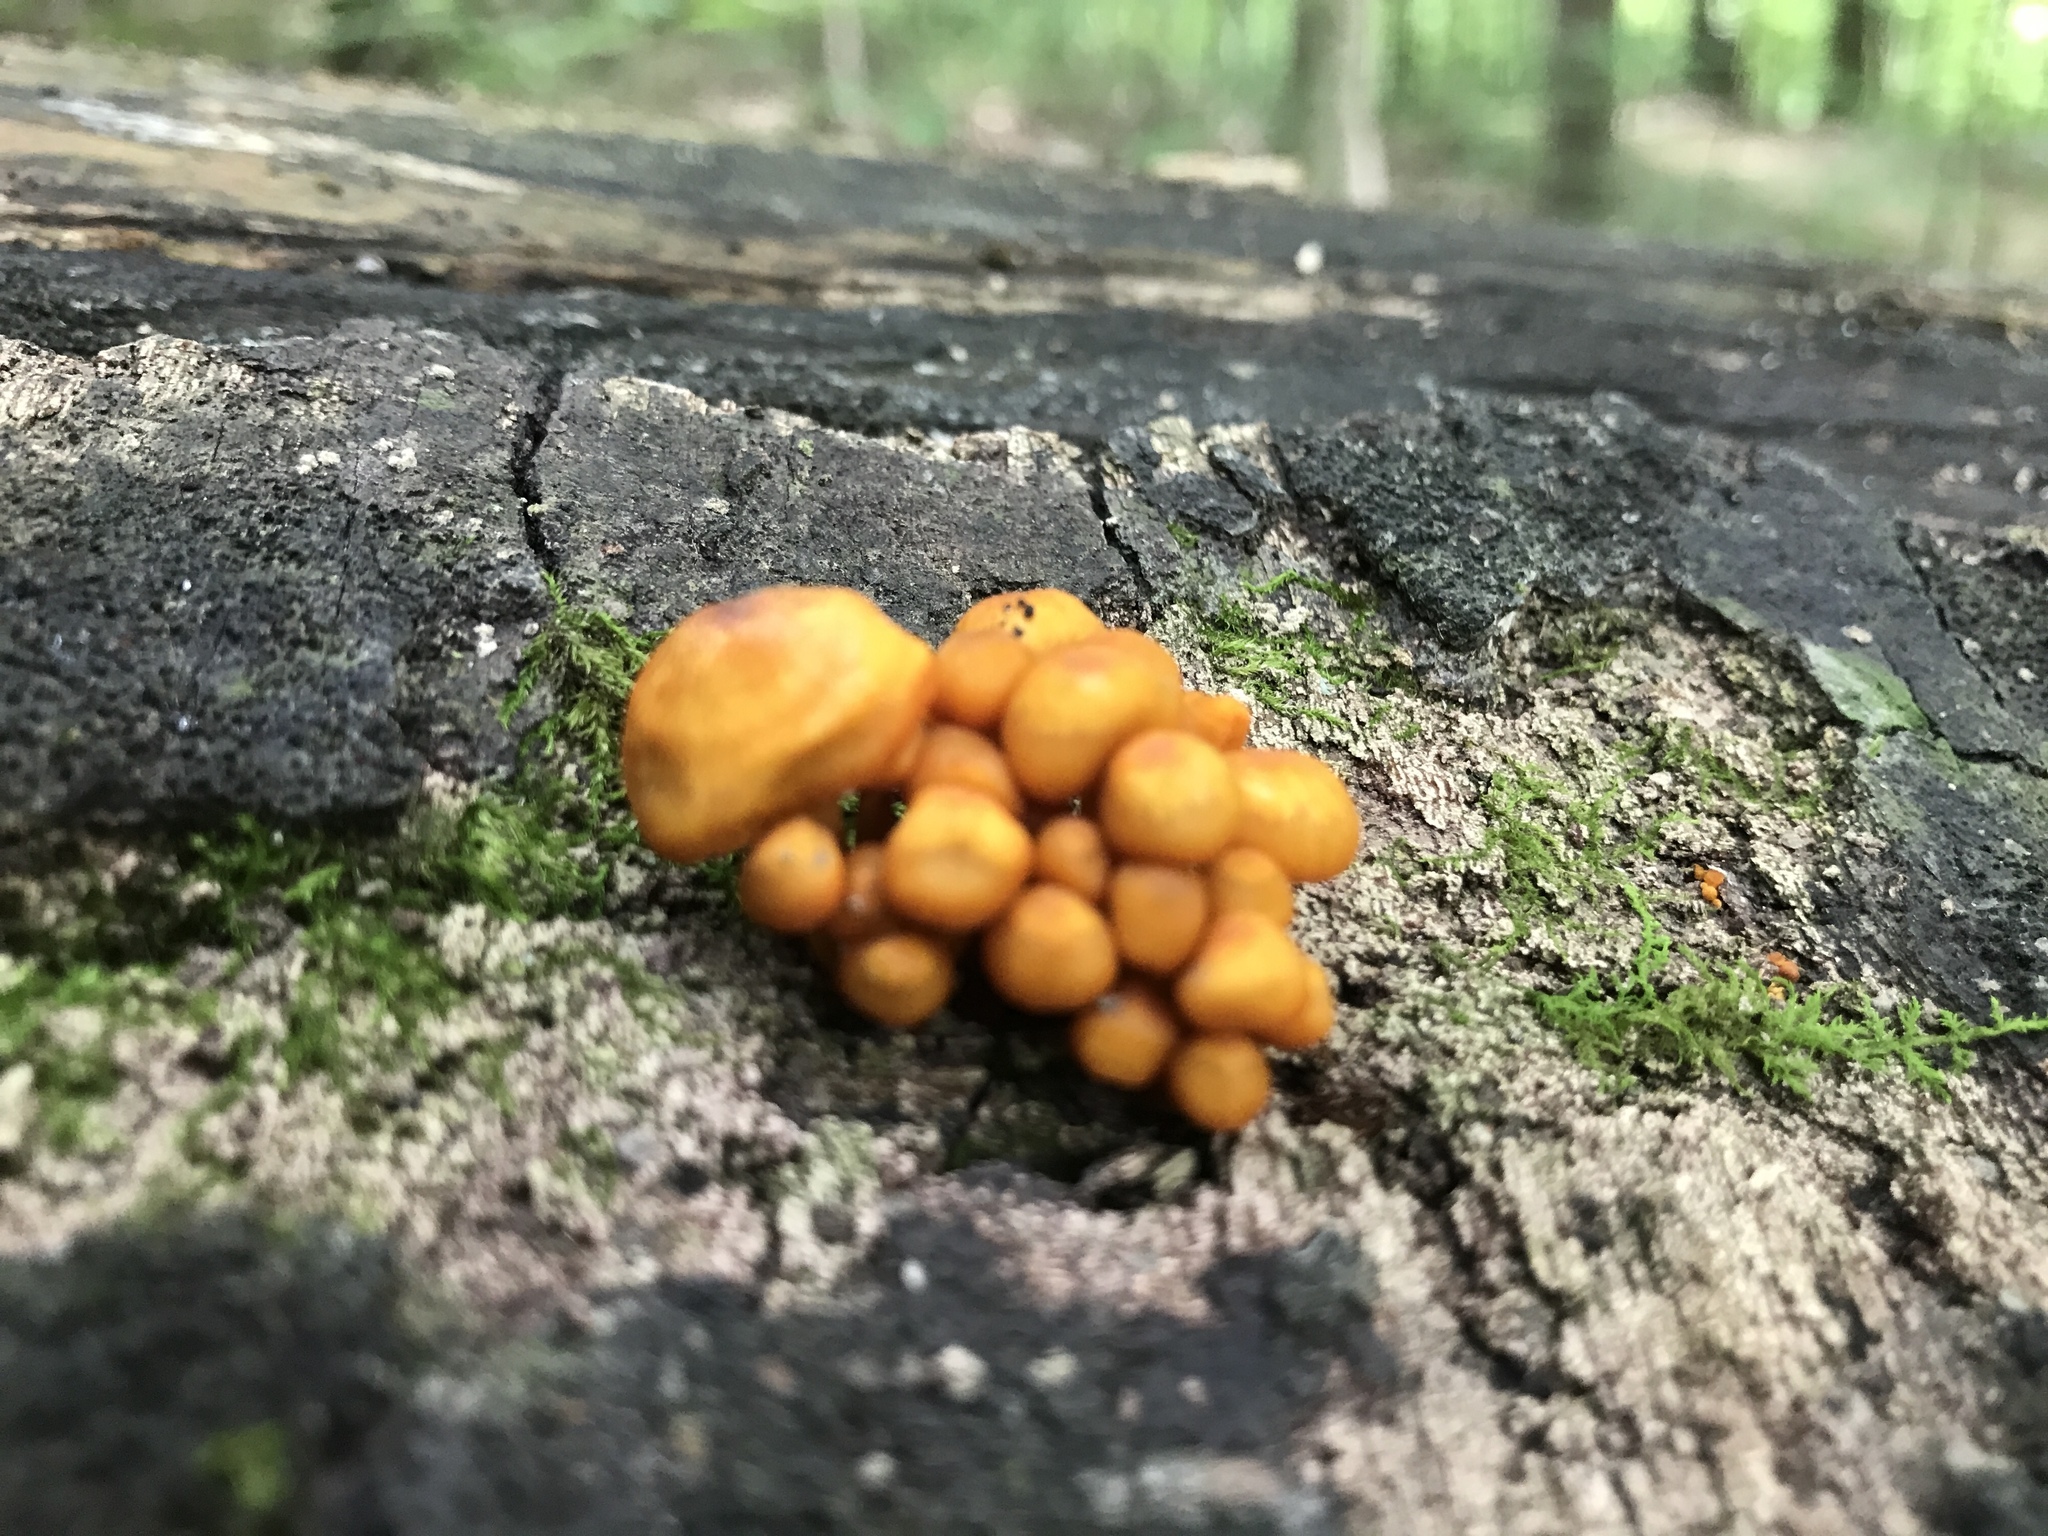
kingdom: Fungi
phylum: Basidiomycota
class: Agaricomycetes
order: Agaricales
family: Mycenaceae
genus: Mycena
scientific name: Mycena leaiana
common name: Orange mycena
